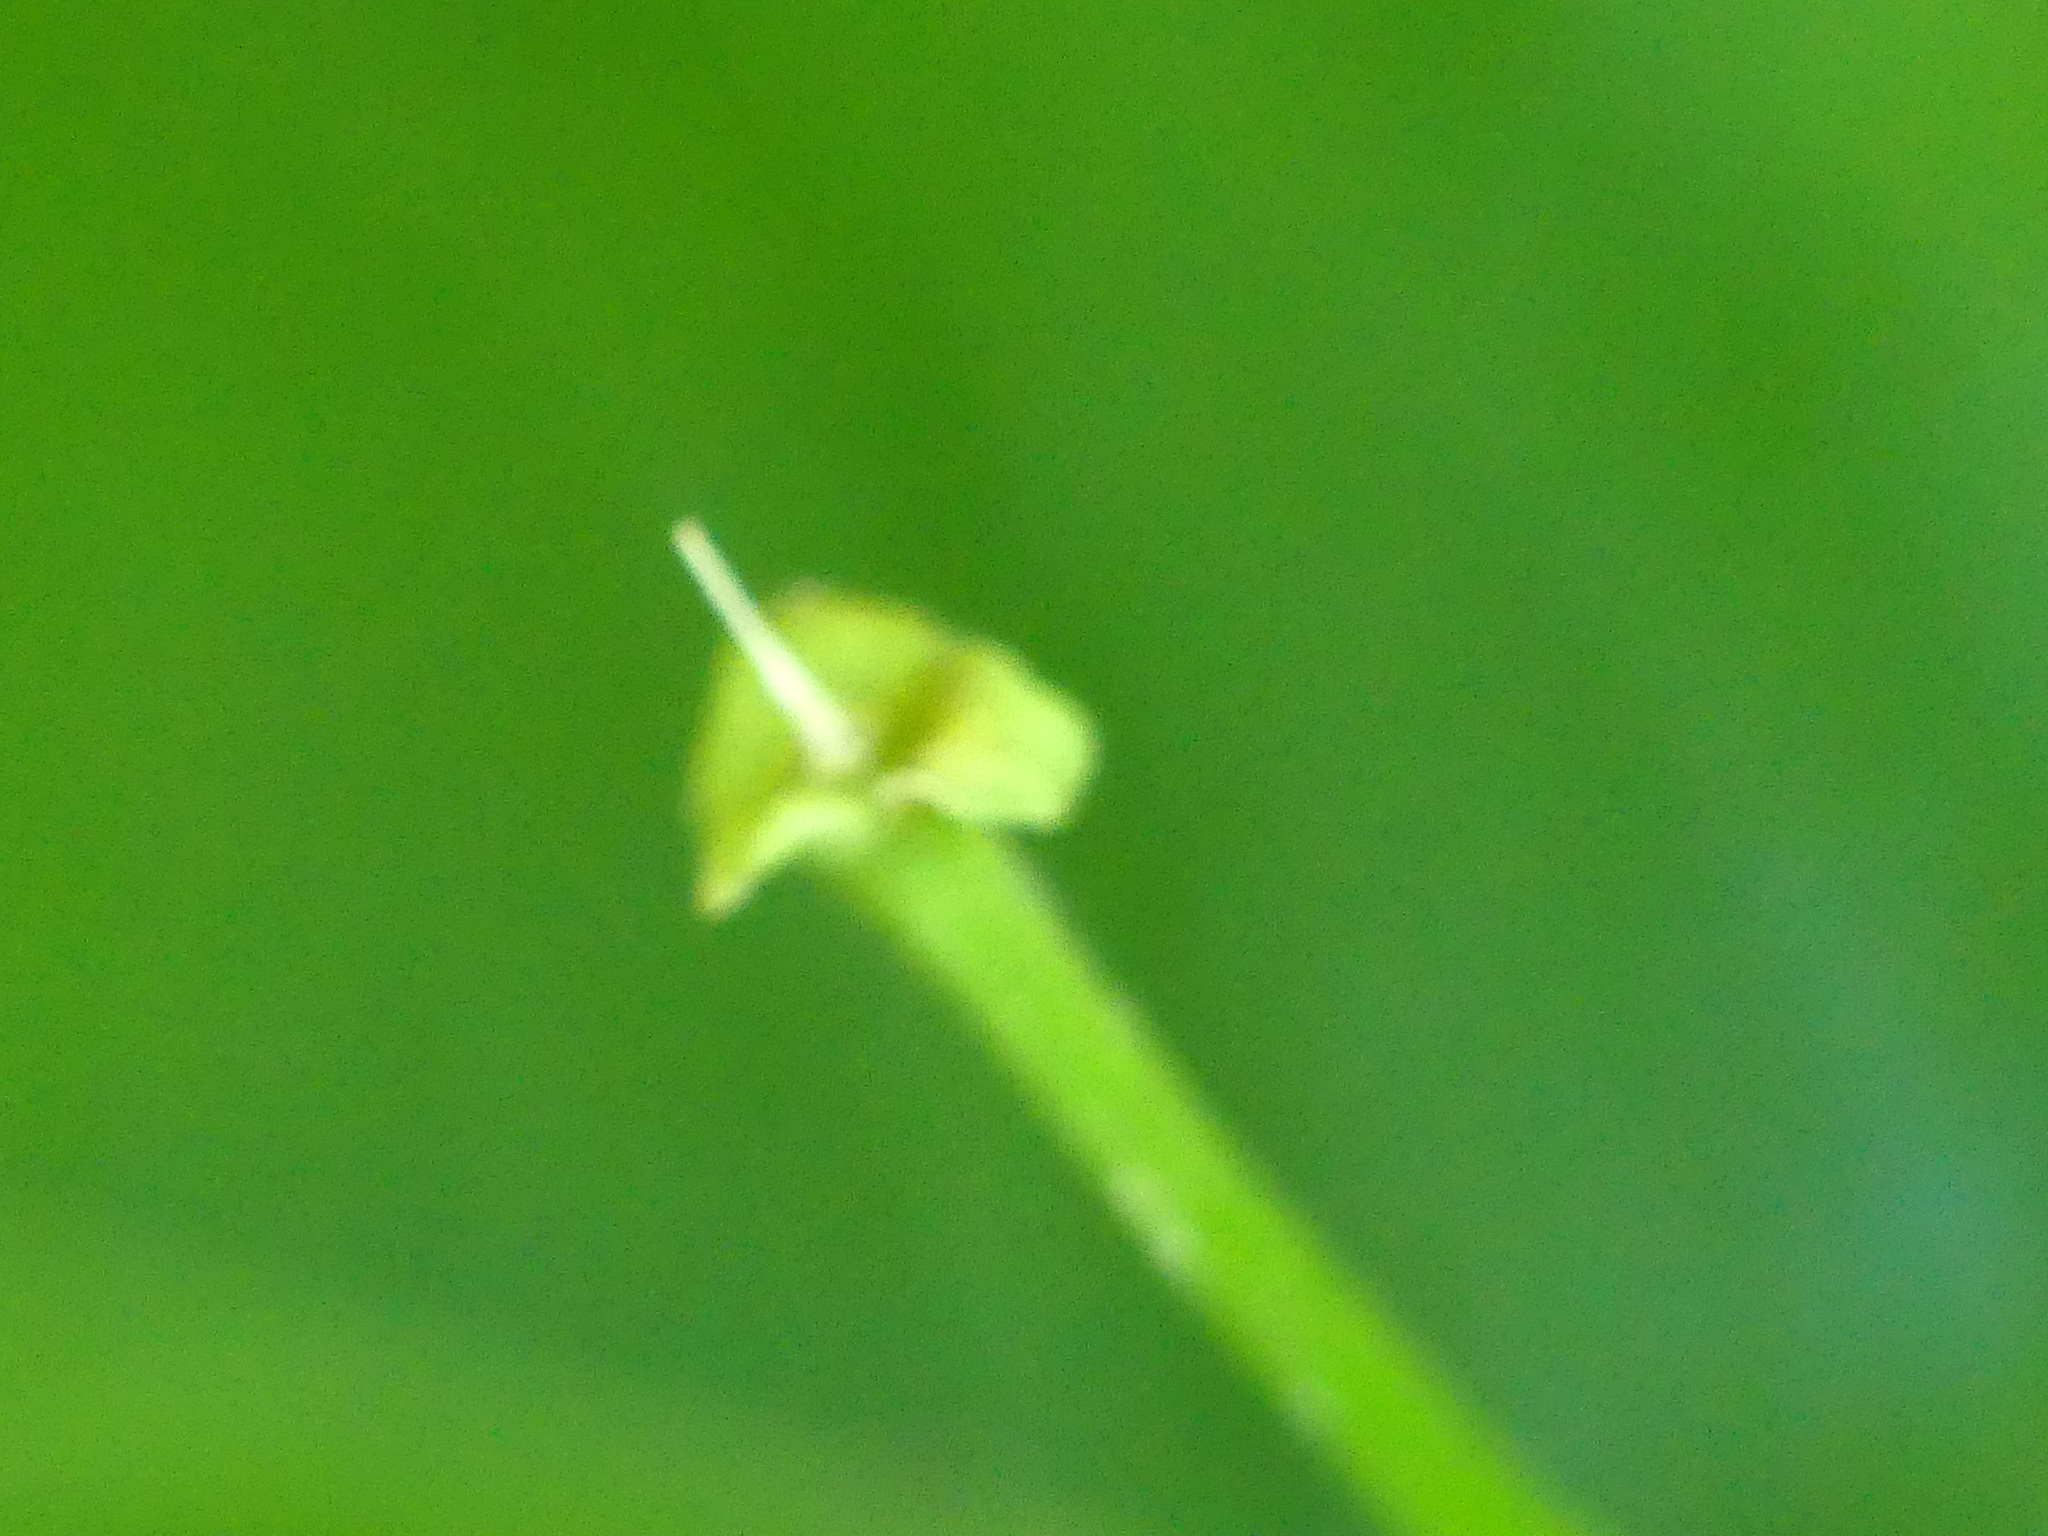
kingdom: Plantae
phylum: Tracheophyta
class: Magnoliopsida
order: Malpighiales
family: Euphorbiaceae
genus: Mercurialis
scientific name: Mercurialis perennis
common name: Dog mercury
